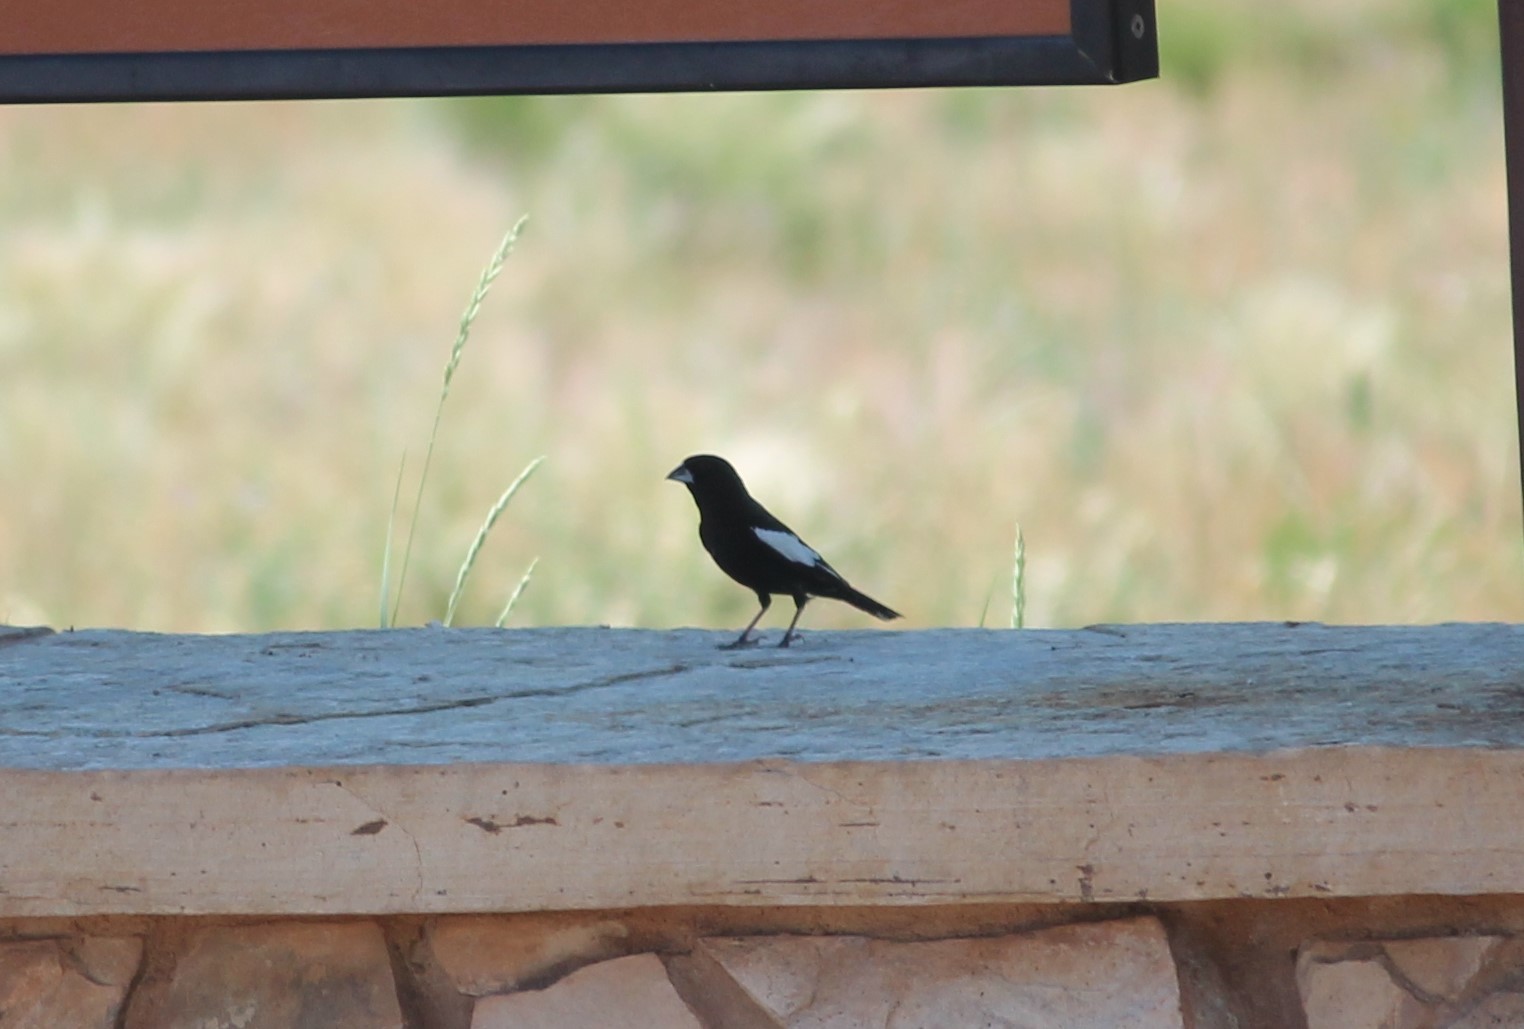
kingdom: Animalia
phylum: Chordata
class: Aves
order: Passeriformes
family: Passerellidae
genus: Calamospiza
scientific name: Calamospiza melanocorys
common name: Lark bunting
